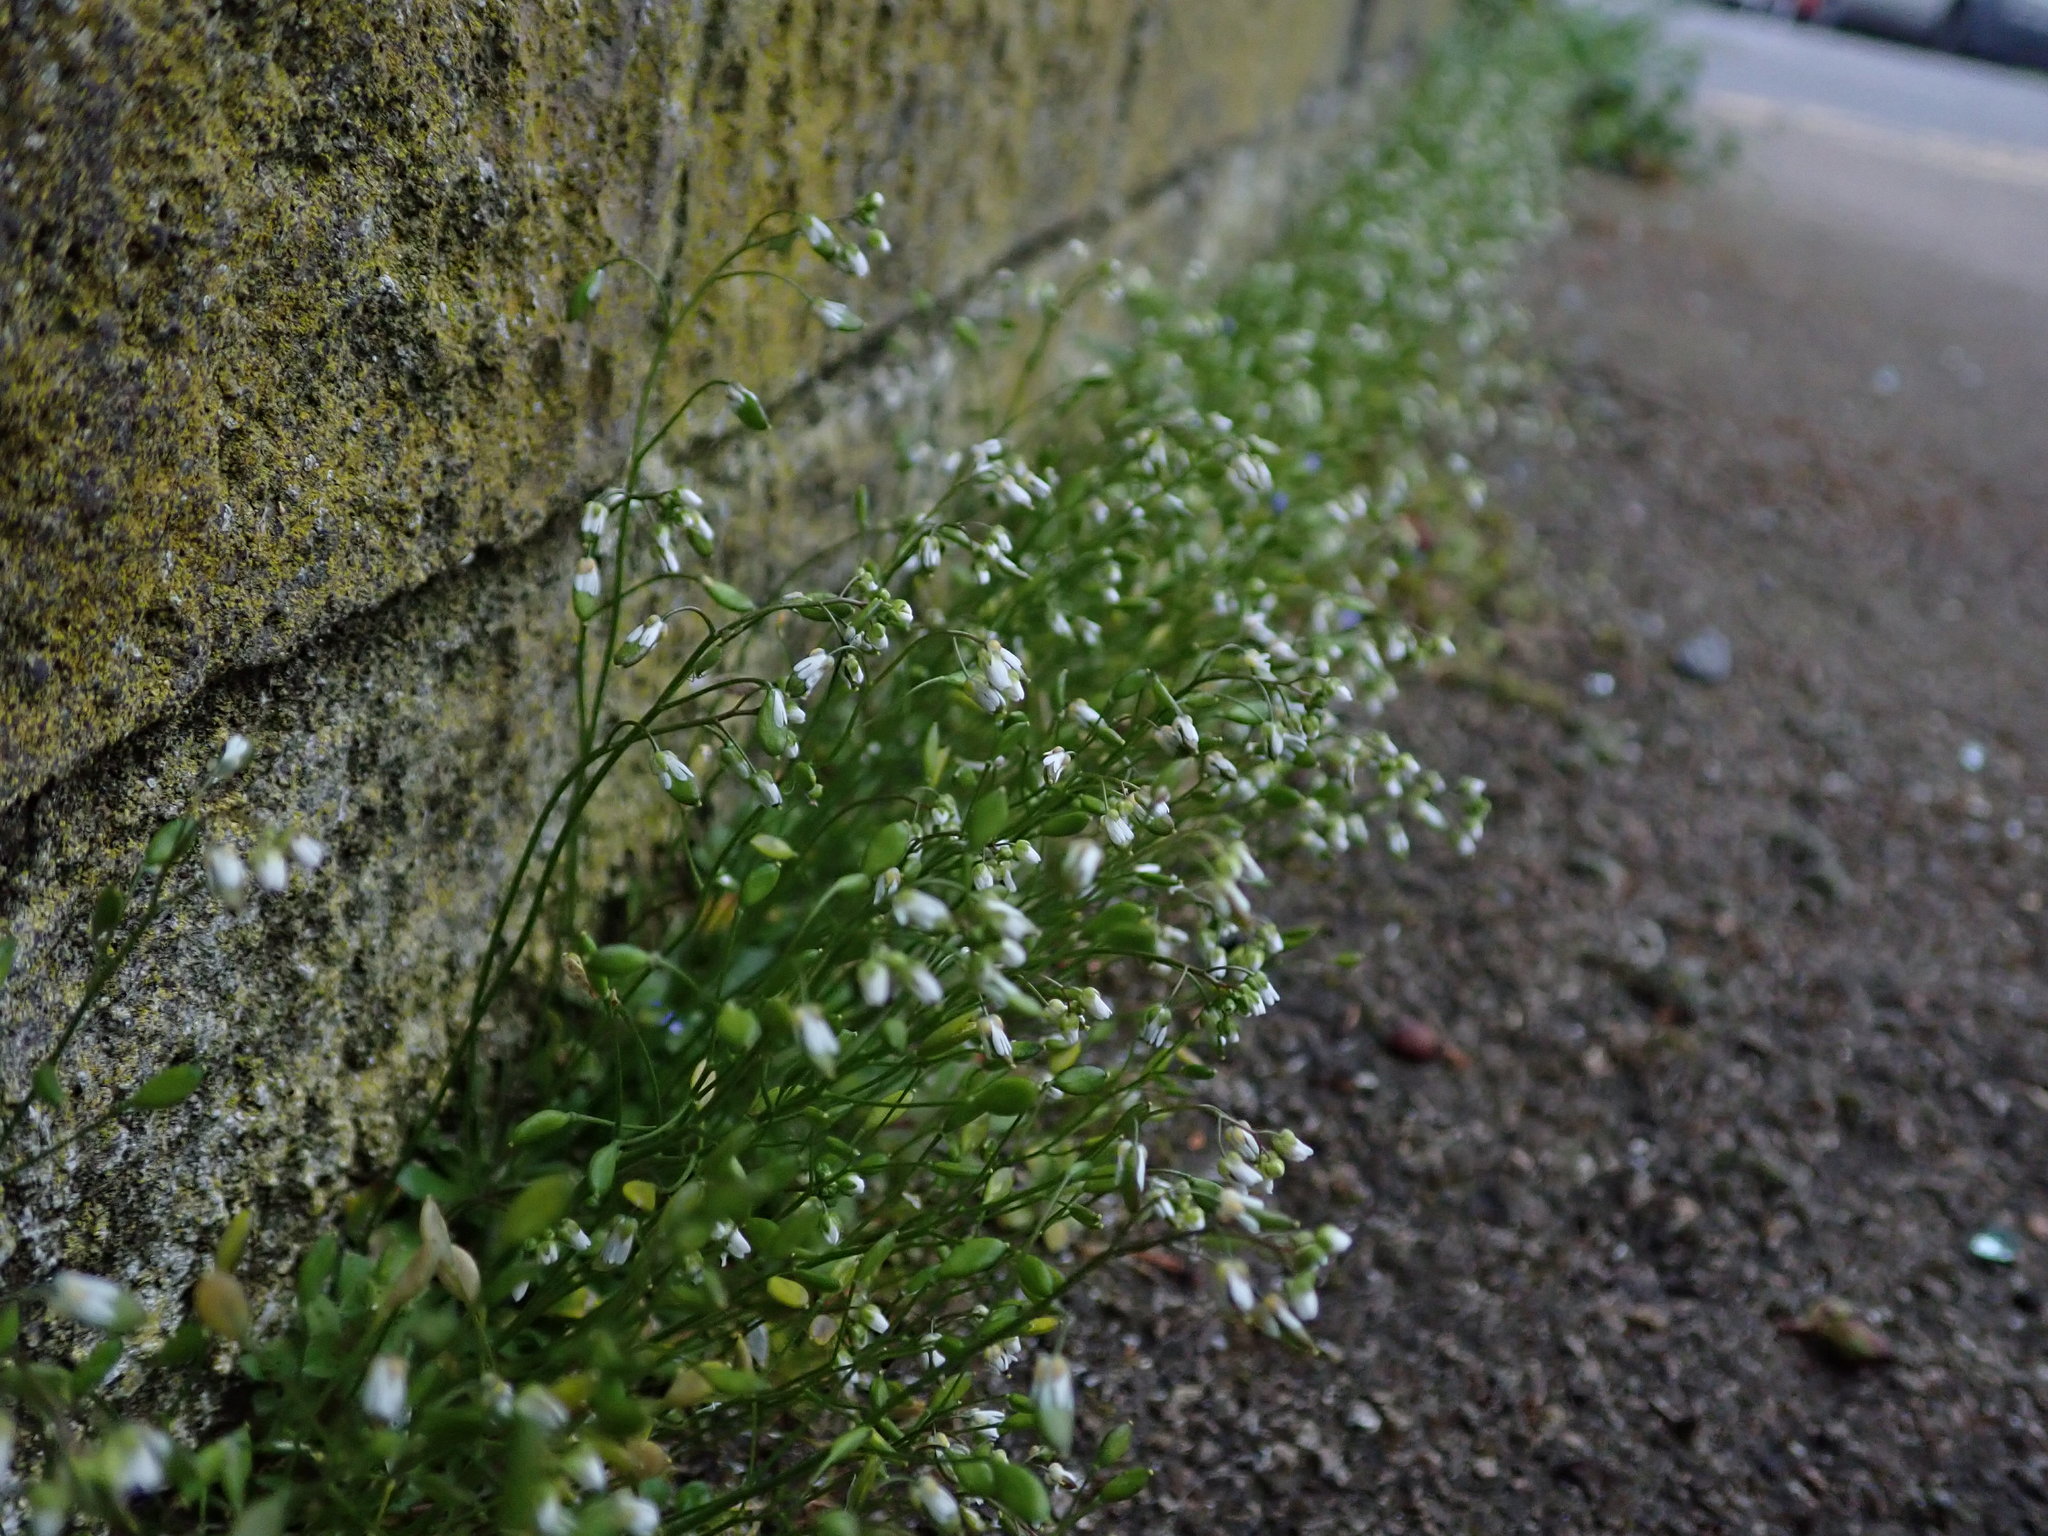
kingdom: Plantae
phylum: Tracheophyta
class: Magnoliopsida
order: Brassicales
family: Brassicaceae
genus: Draba
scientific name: Draba verna
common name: Spring draba
